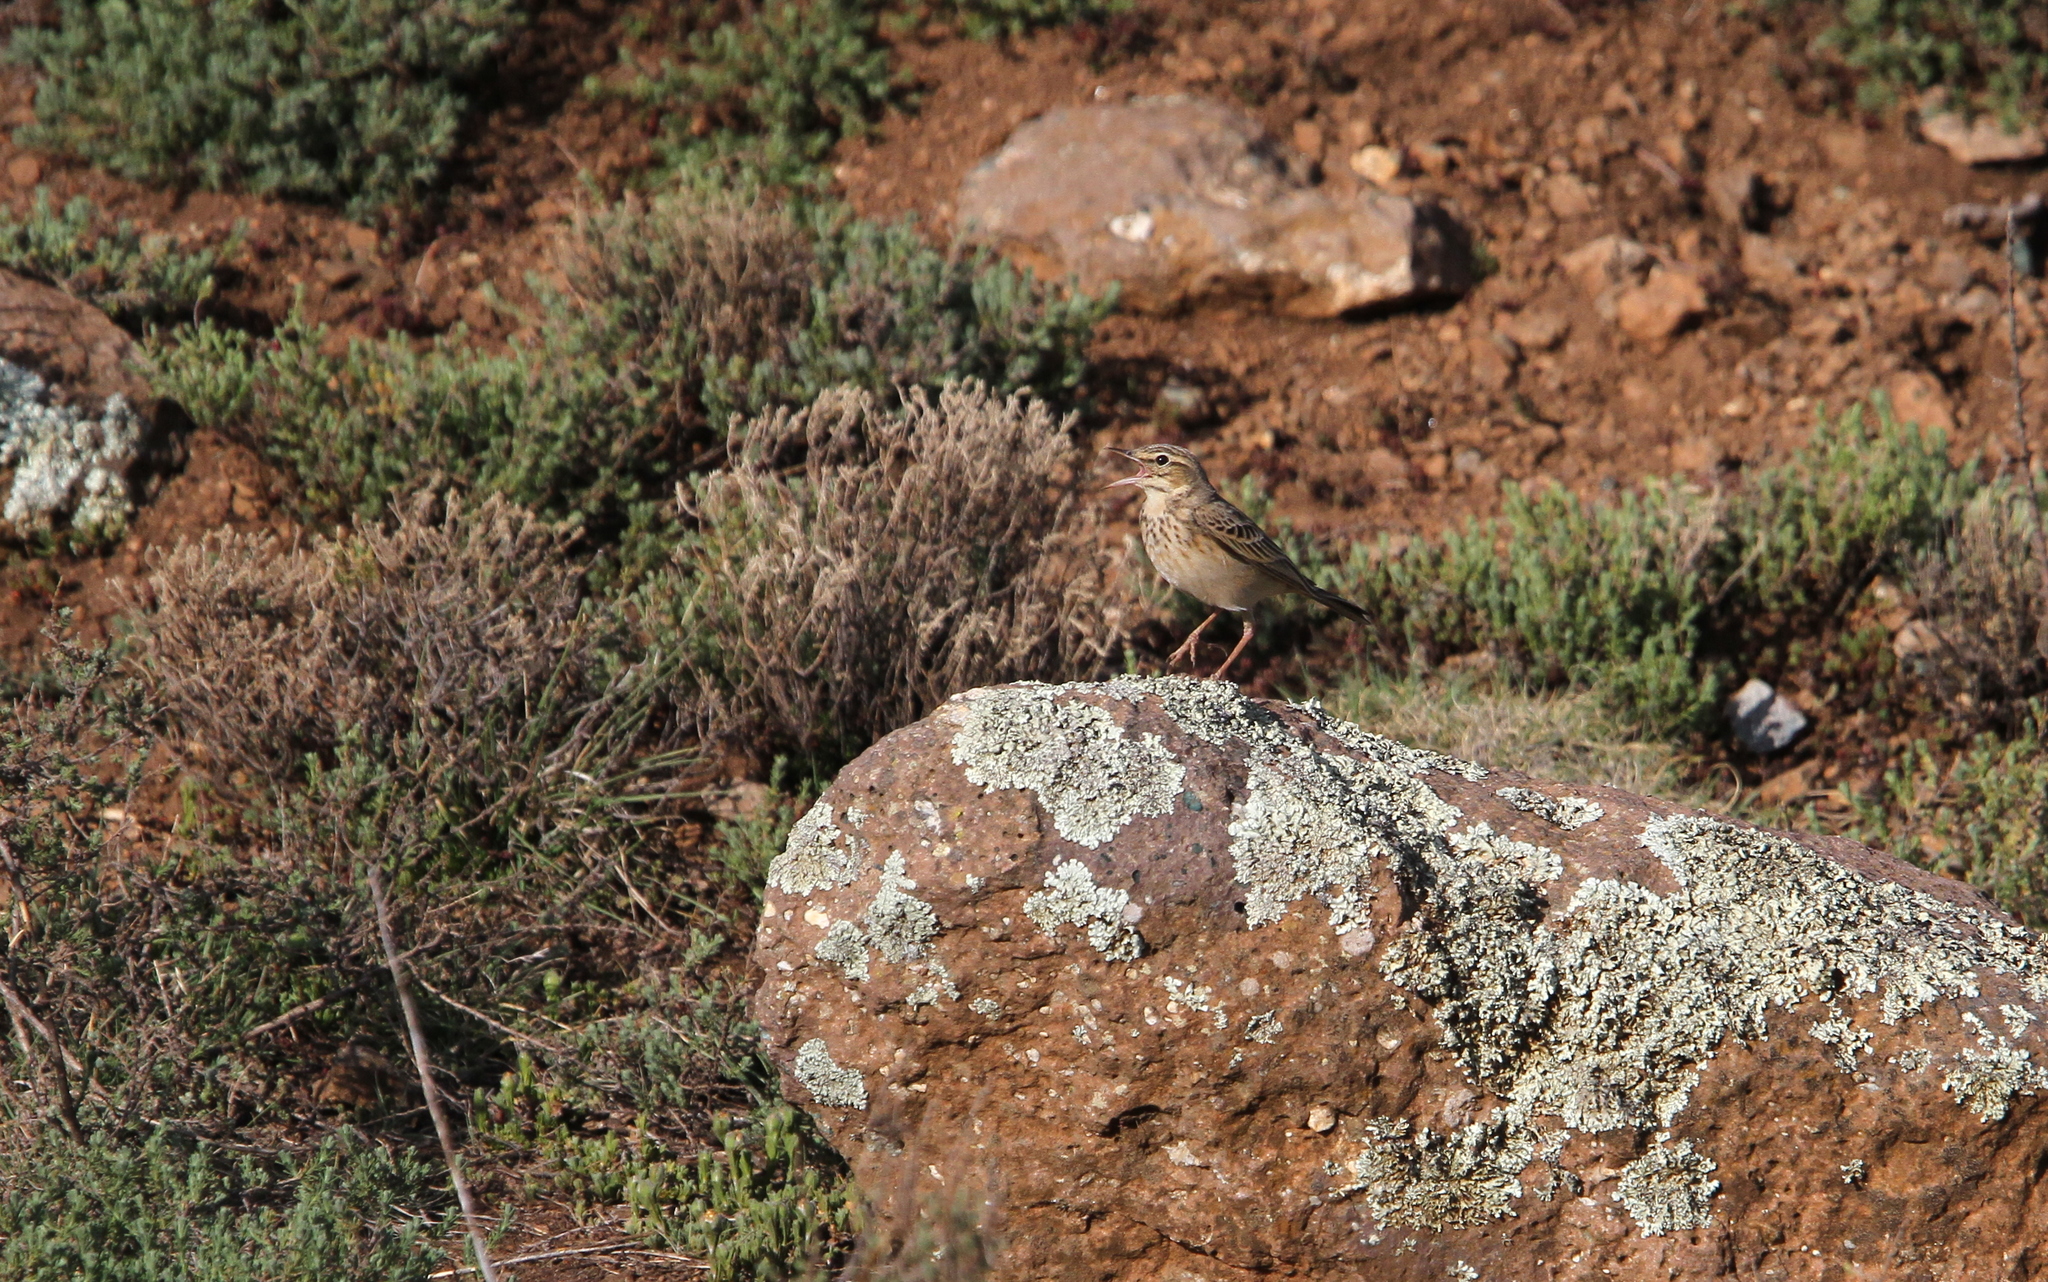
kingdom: Animalia
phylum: Chordata
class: Aves
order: Passeriformes
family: Motacillidae
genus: Anthus
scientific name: Anthus hoeschi
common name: Mountain pipit
